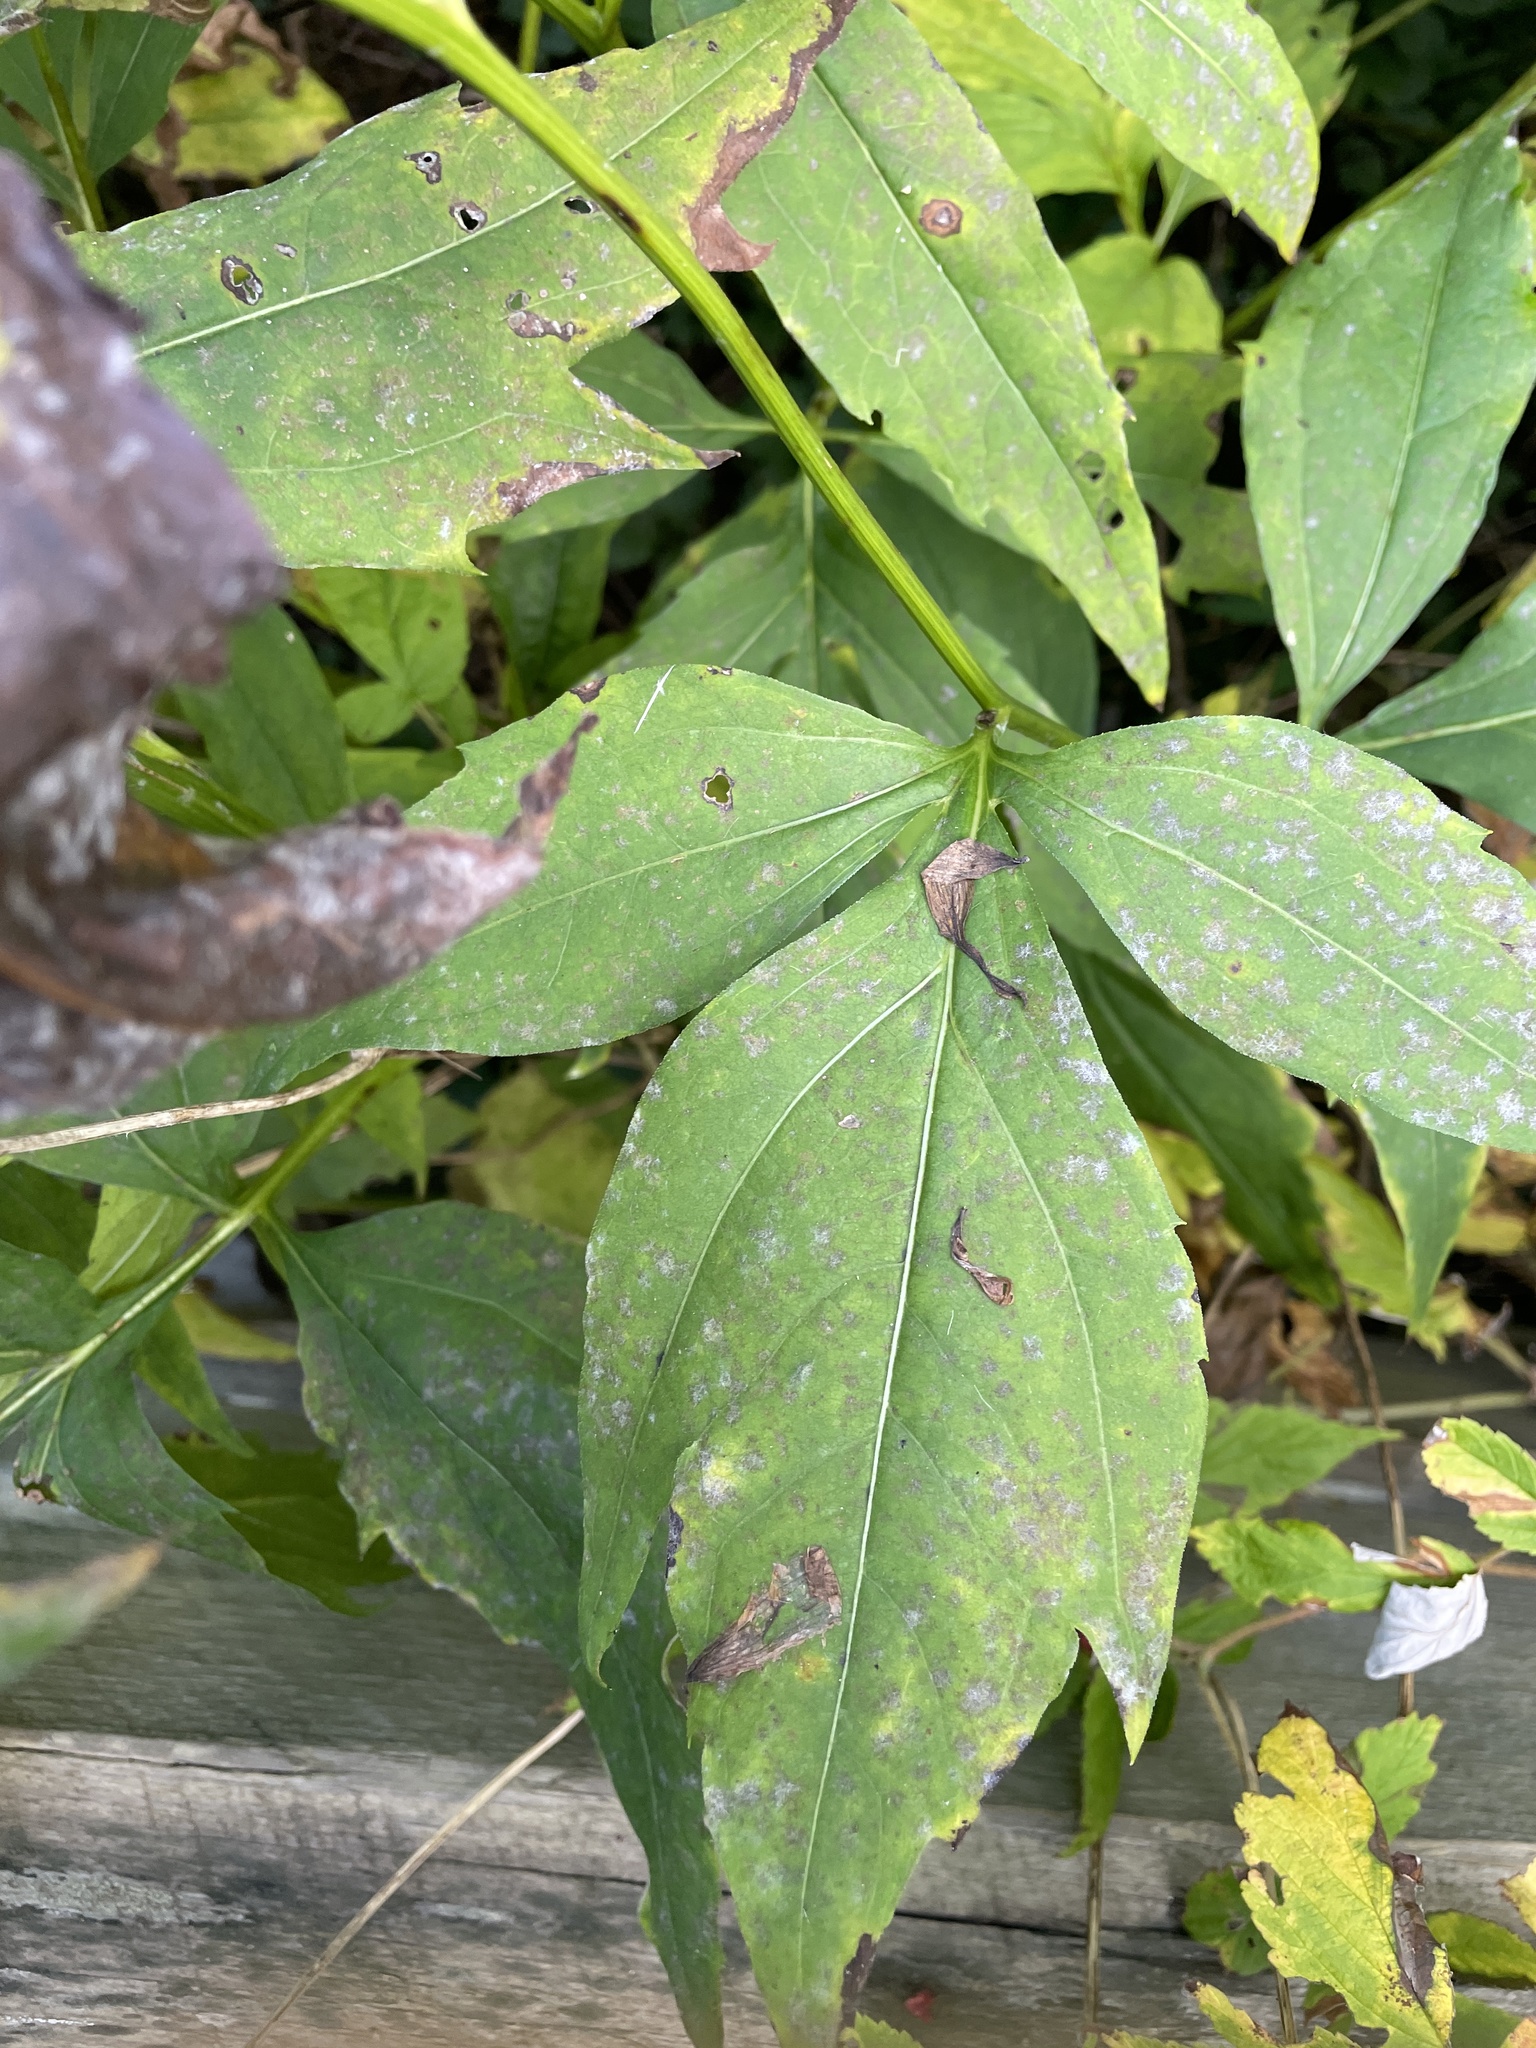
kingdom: Plantae
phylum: Tracheophyta
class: Magnoliopsida
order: Asterales
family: Asteraceae
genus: Rudbeckia
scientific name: Rudbeckia laciniata
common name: Coneflower
